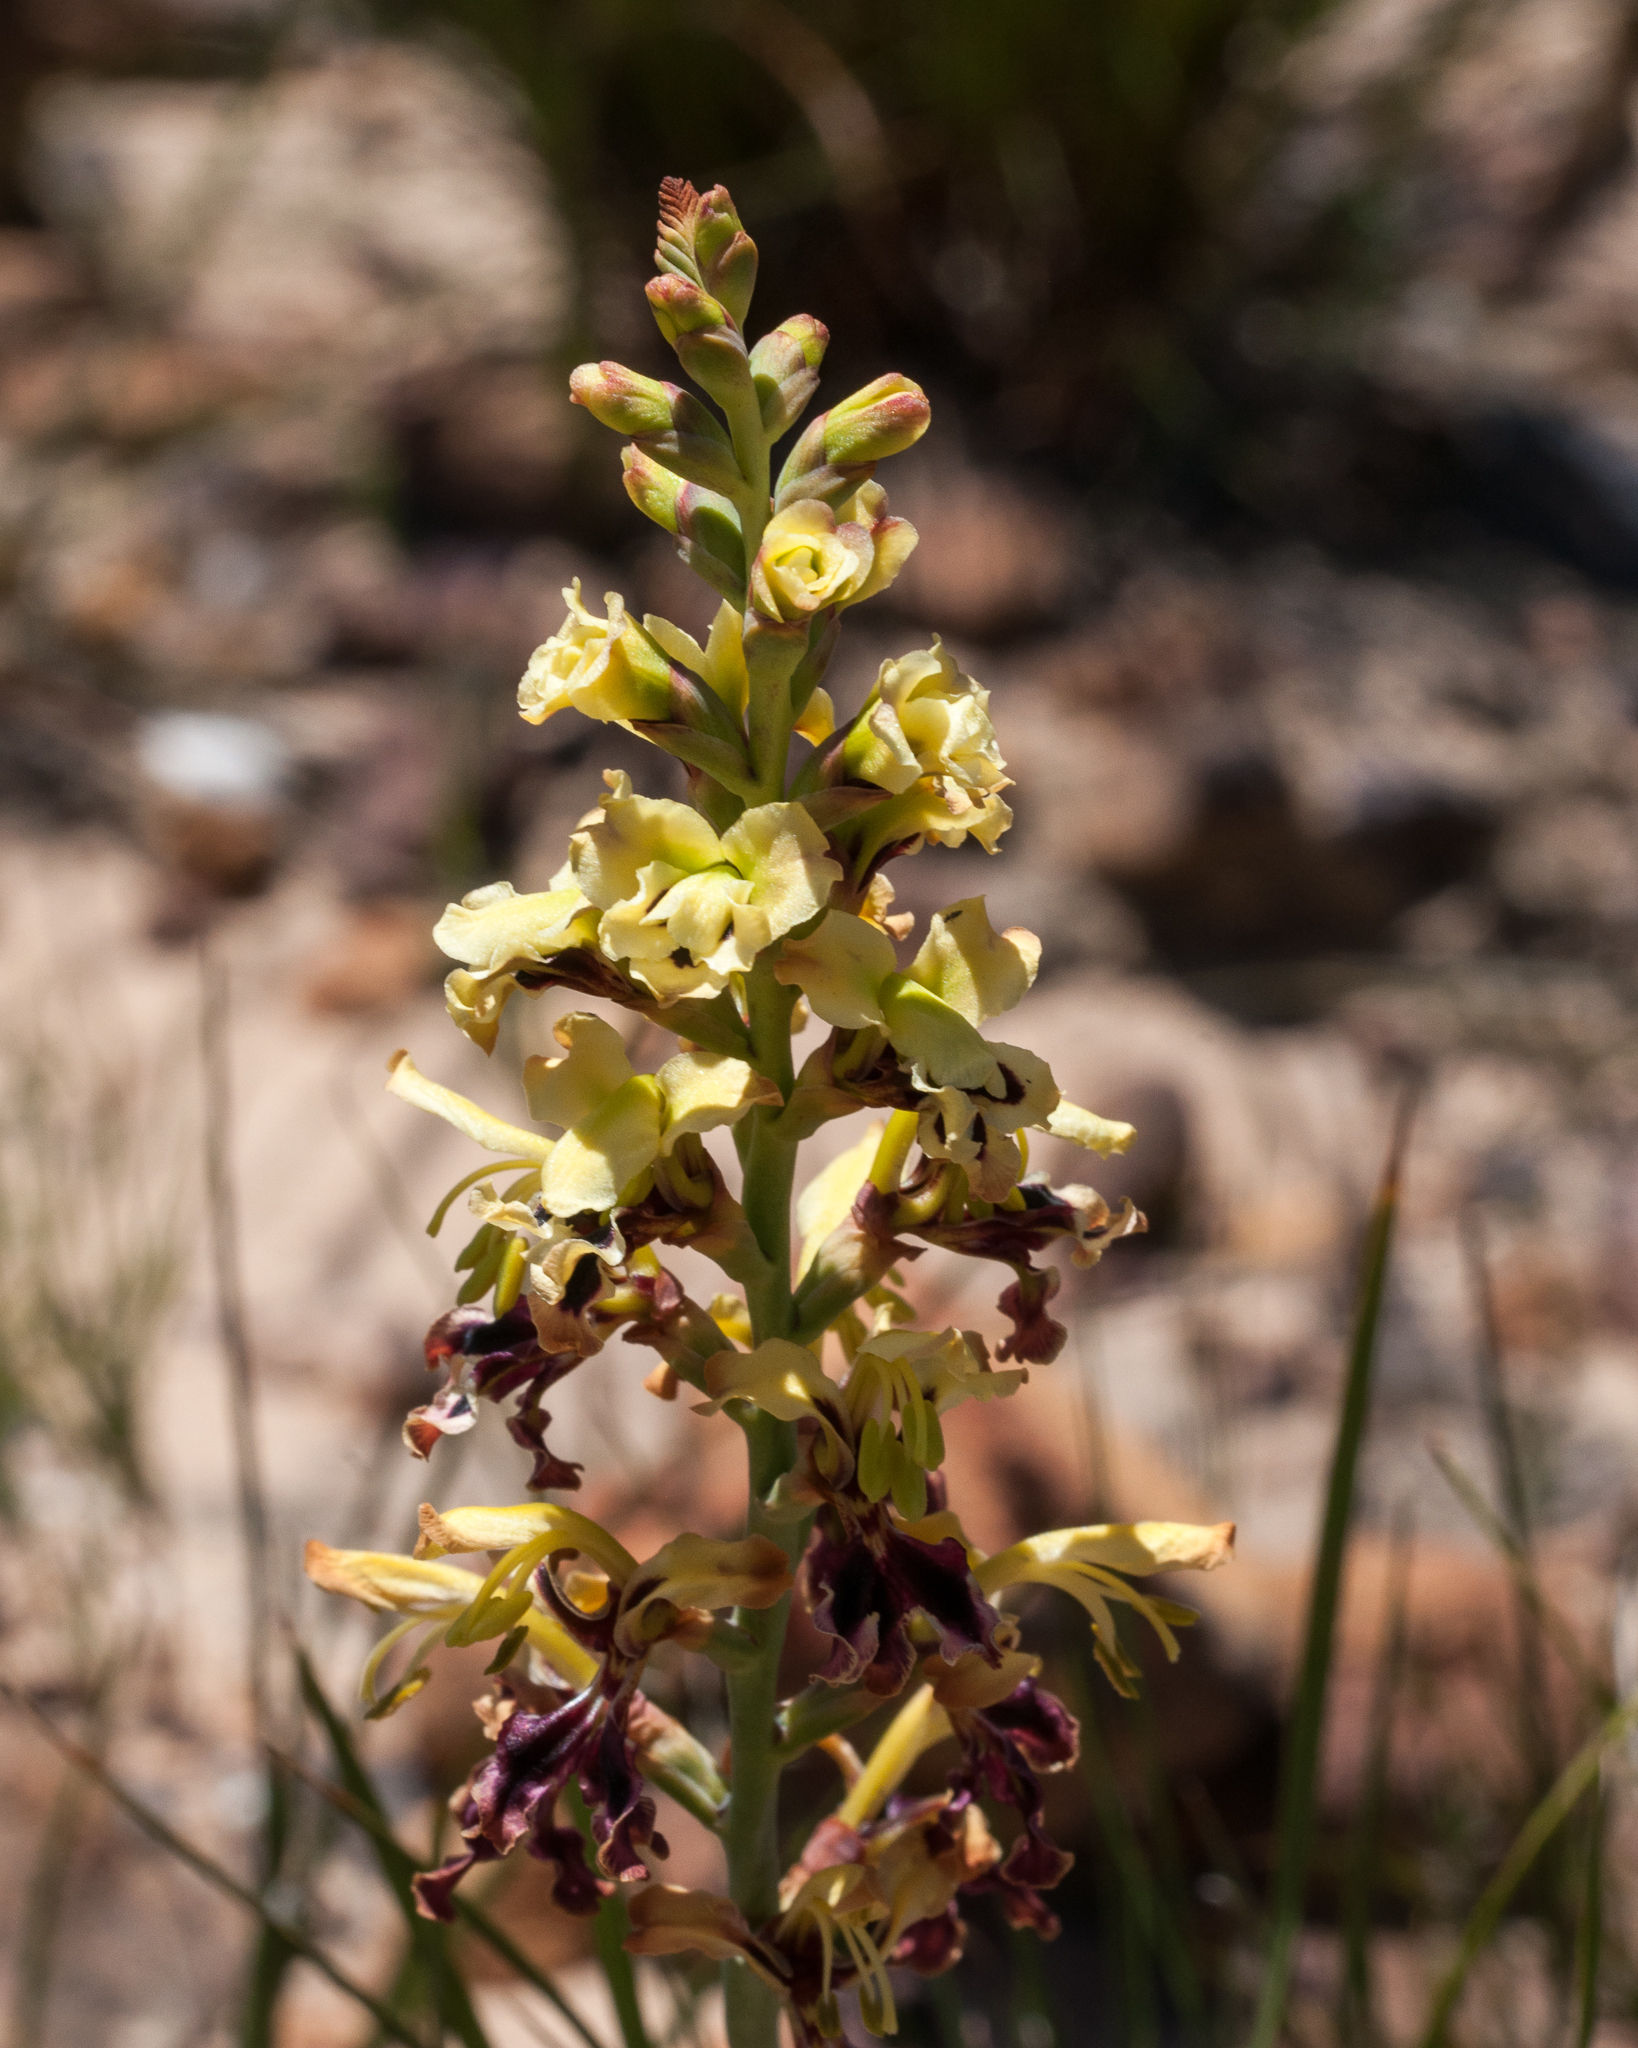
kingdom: Plantae
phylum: Tracheophyta
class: Liliopsida
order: Asparagales
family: Iridaceae
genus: Tritoniopsis
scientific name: Tritoniopsis parviflora
